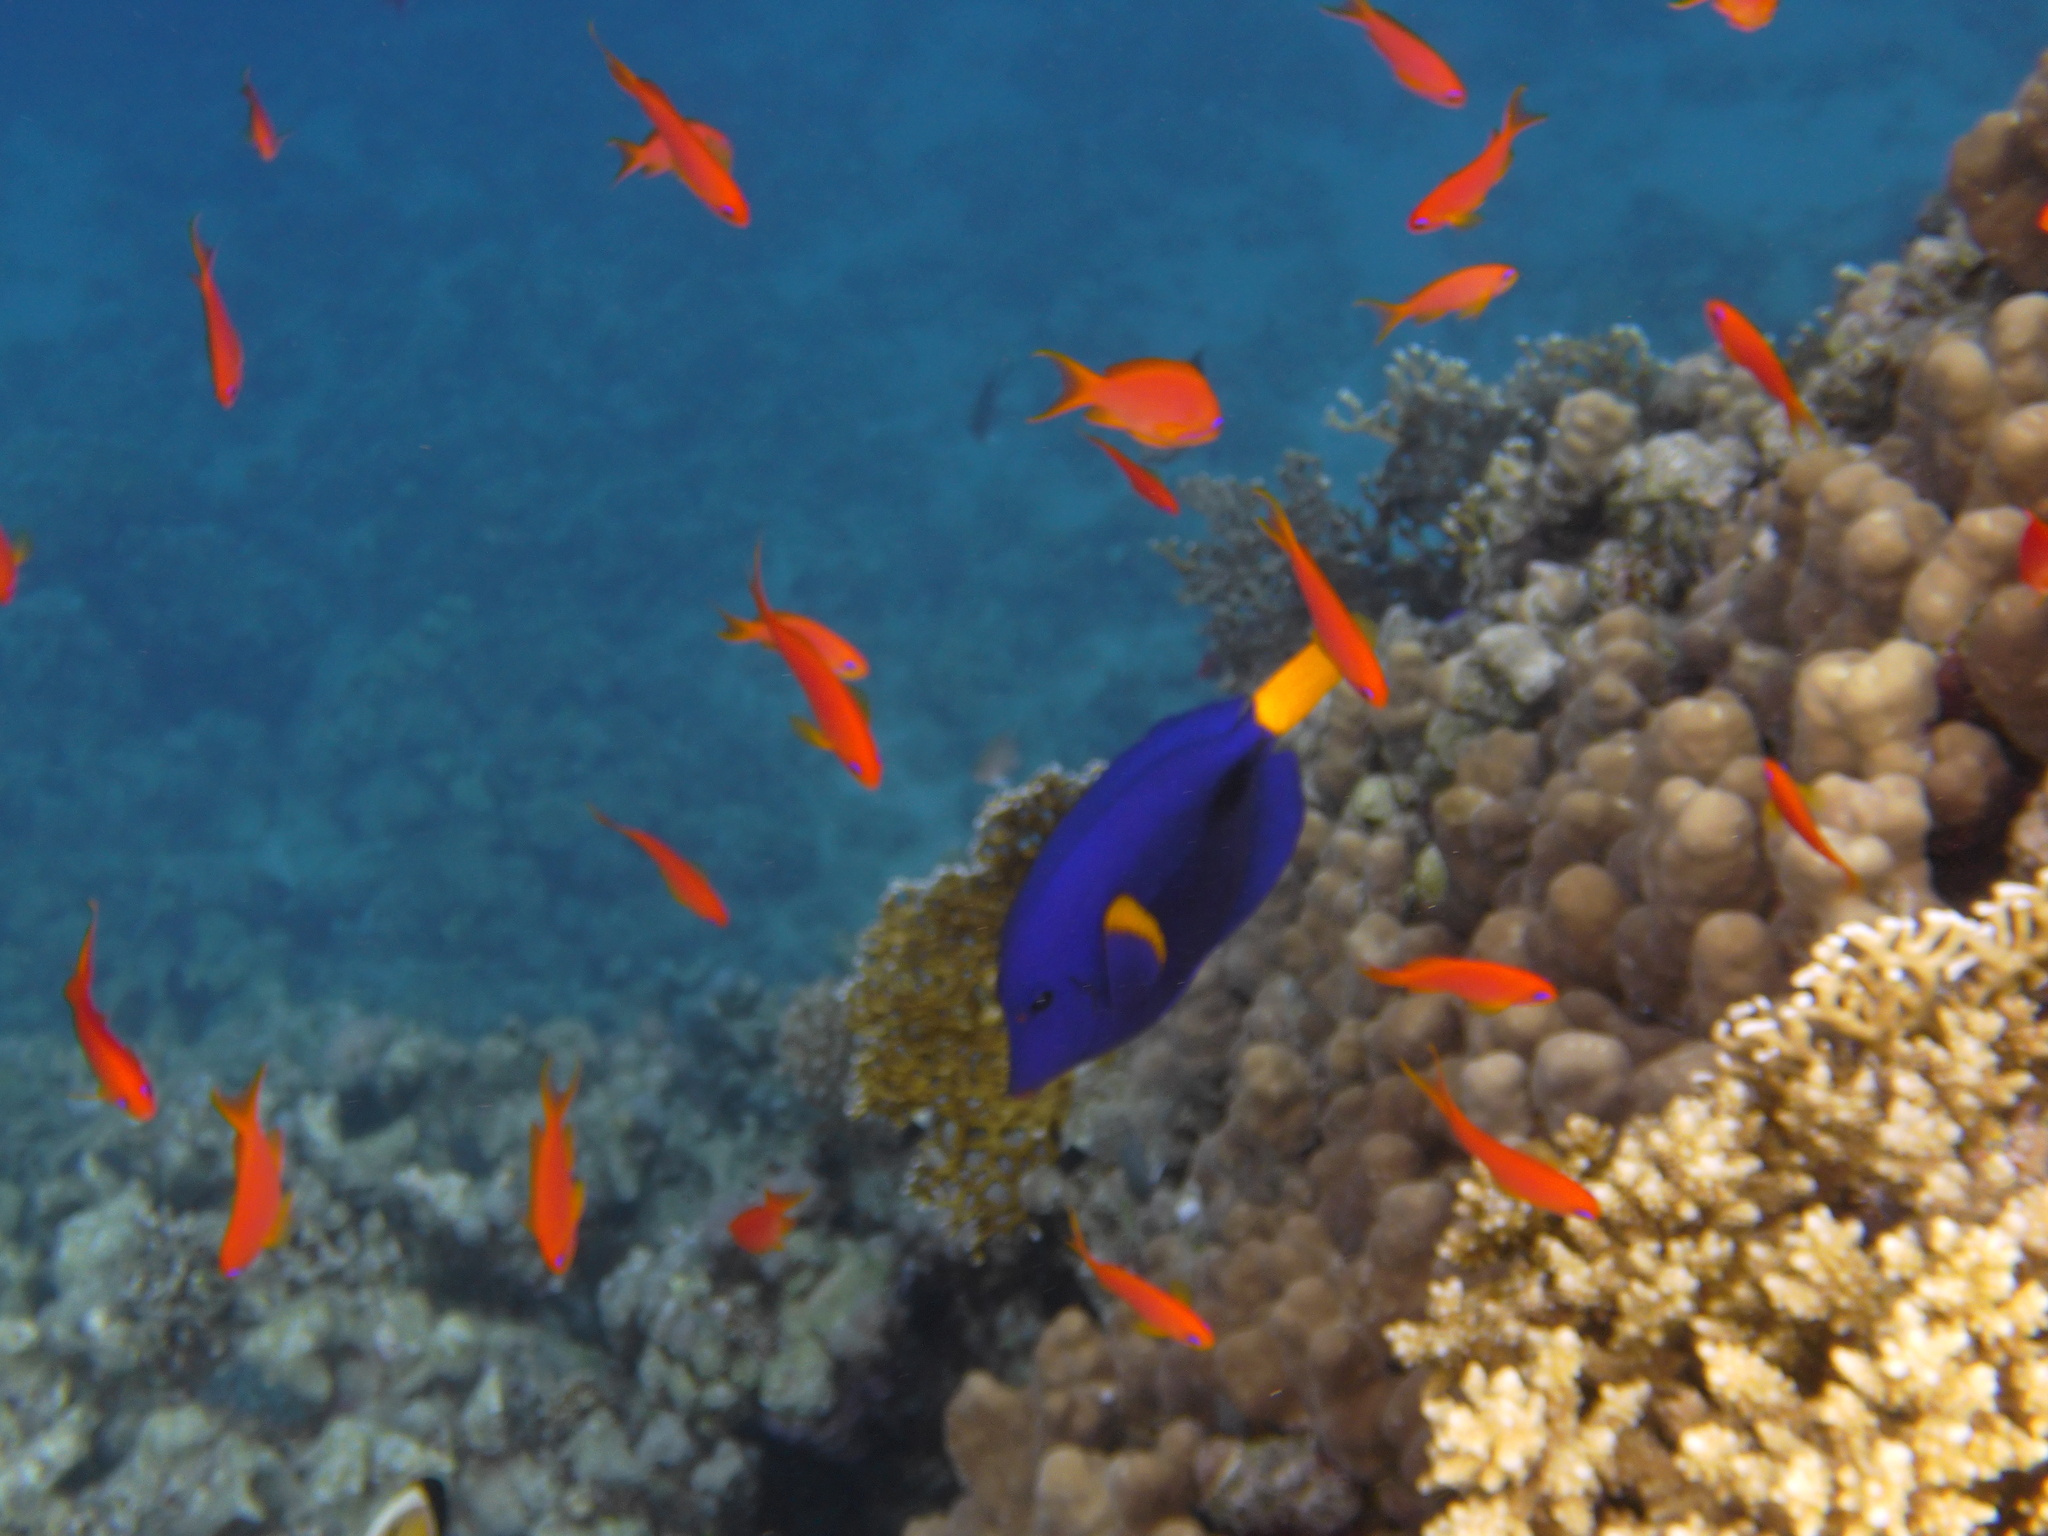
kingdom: Animalia
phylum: Chordata
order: Perciformes
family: Acanthuridae
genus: Zebrasoma
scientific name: Zebrasoma xanthurum
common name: Purple tang
